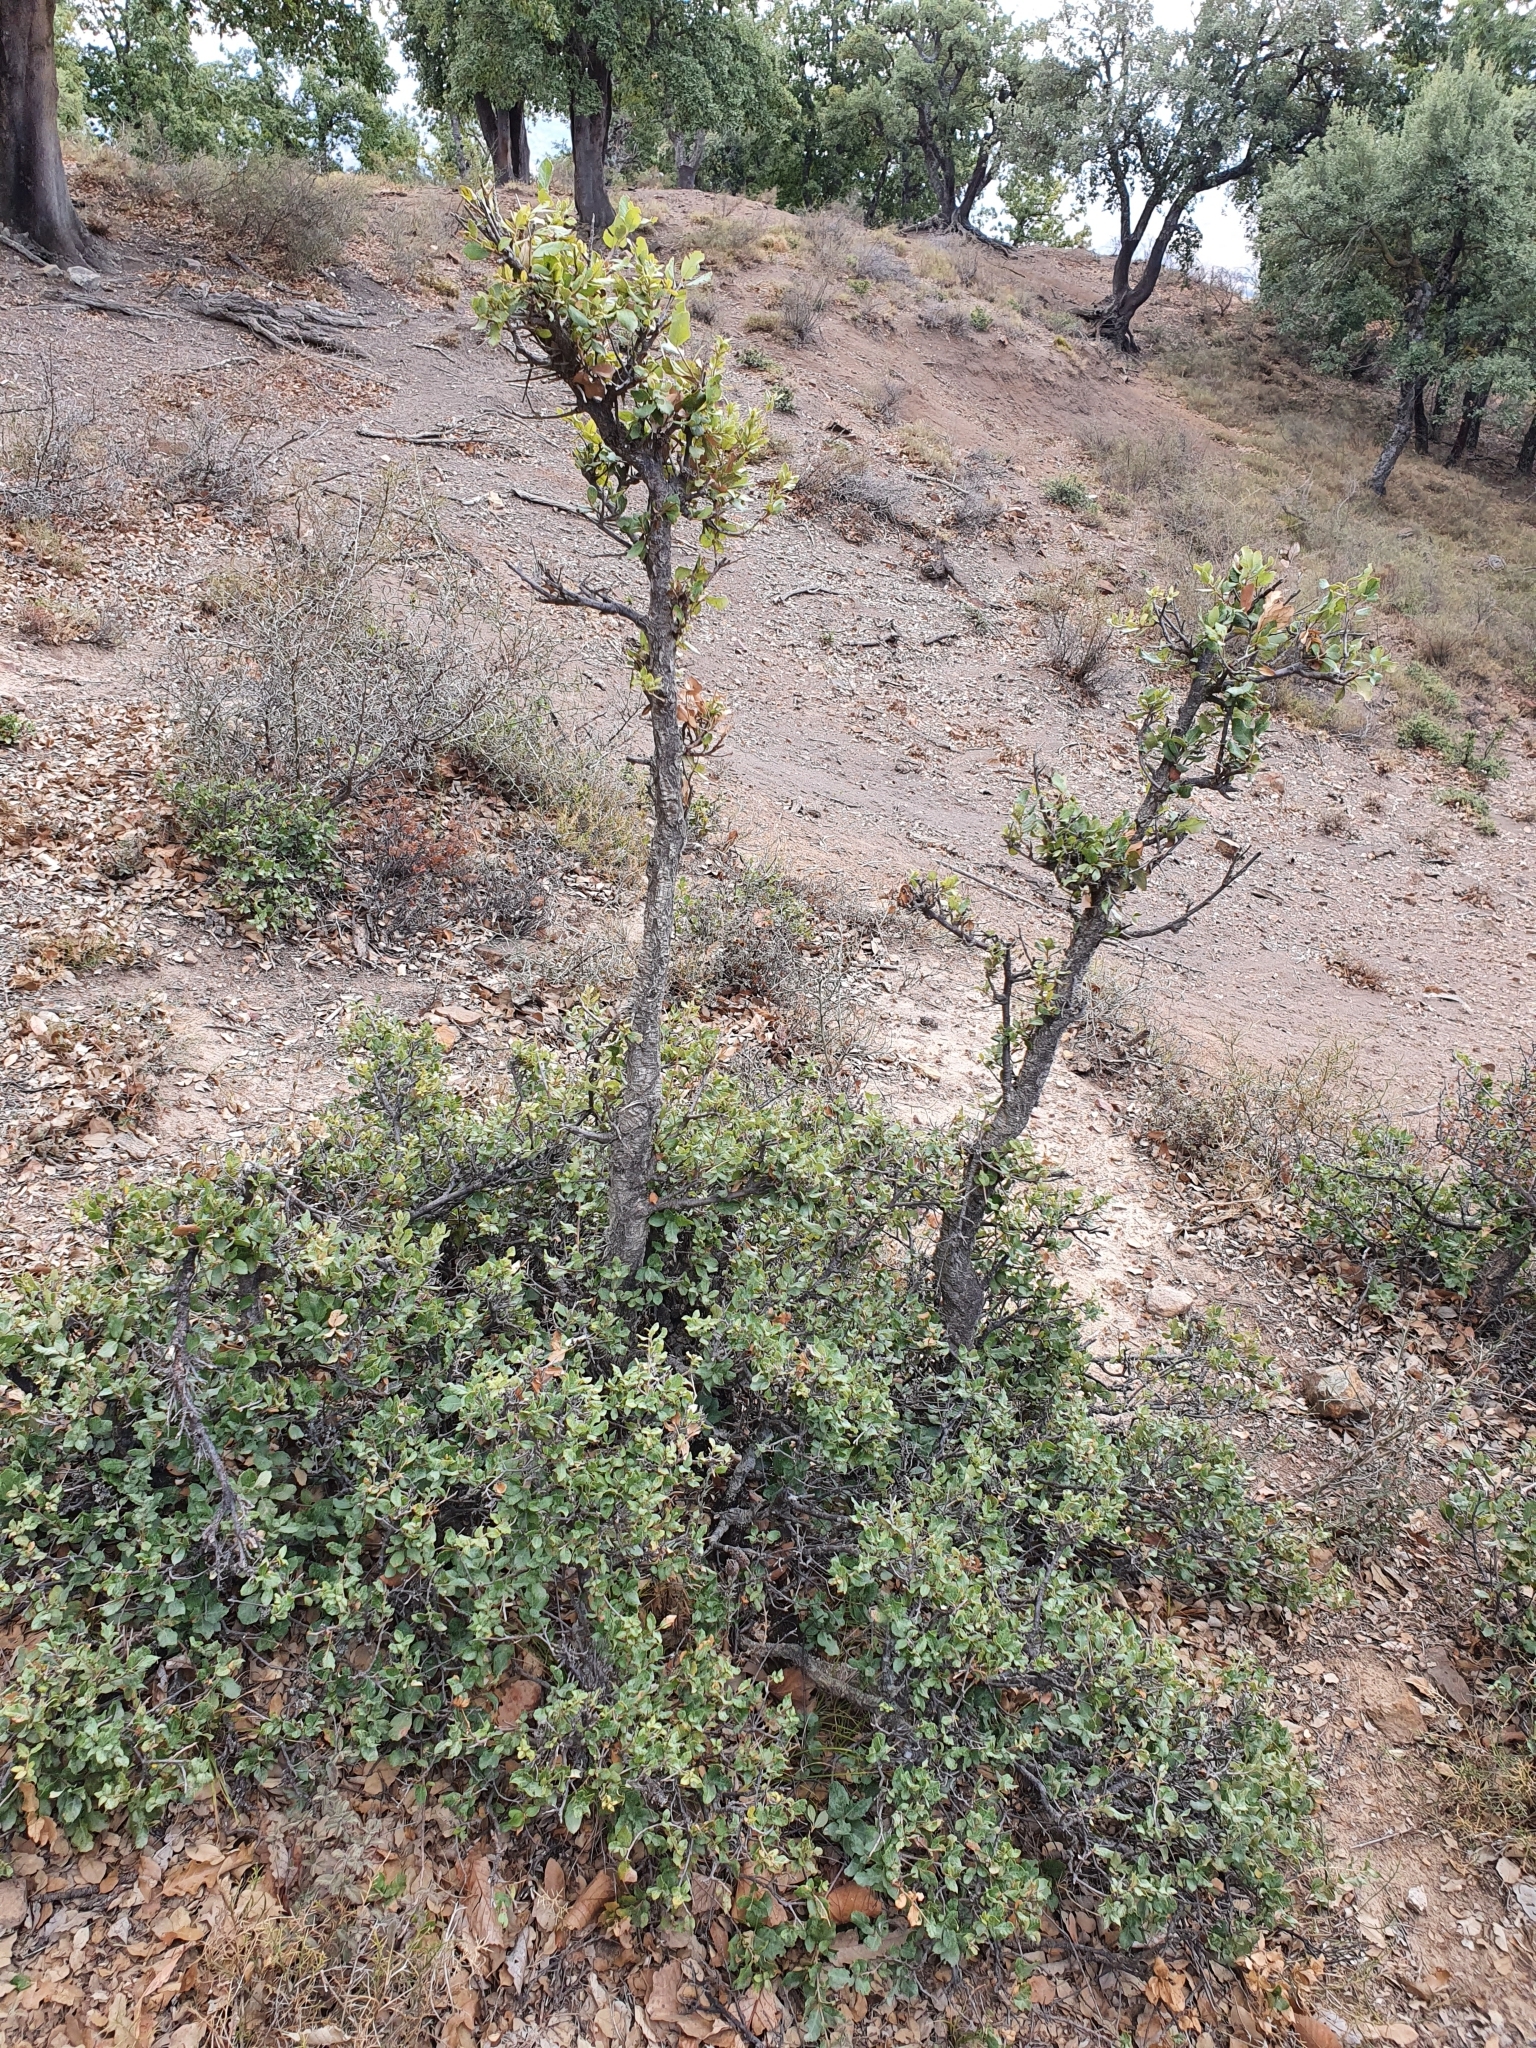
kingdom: Plantae
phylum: Tracheophyta
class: Magnoliopsida
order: Fagales
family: Fagaceae
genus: Quercus
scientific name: Quercus rotundifolia
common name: Holm oak
